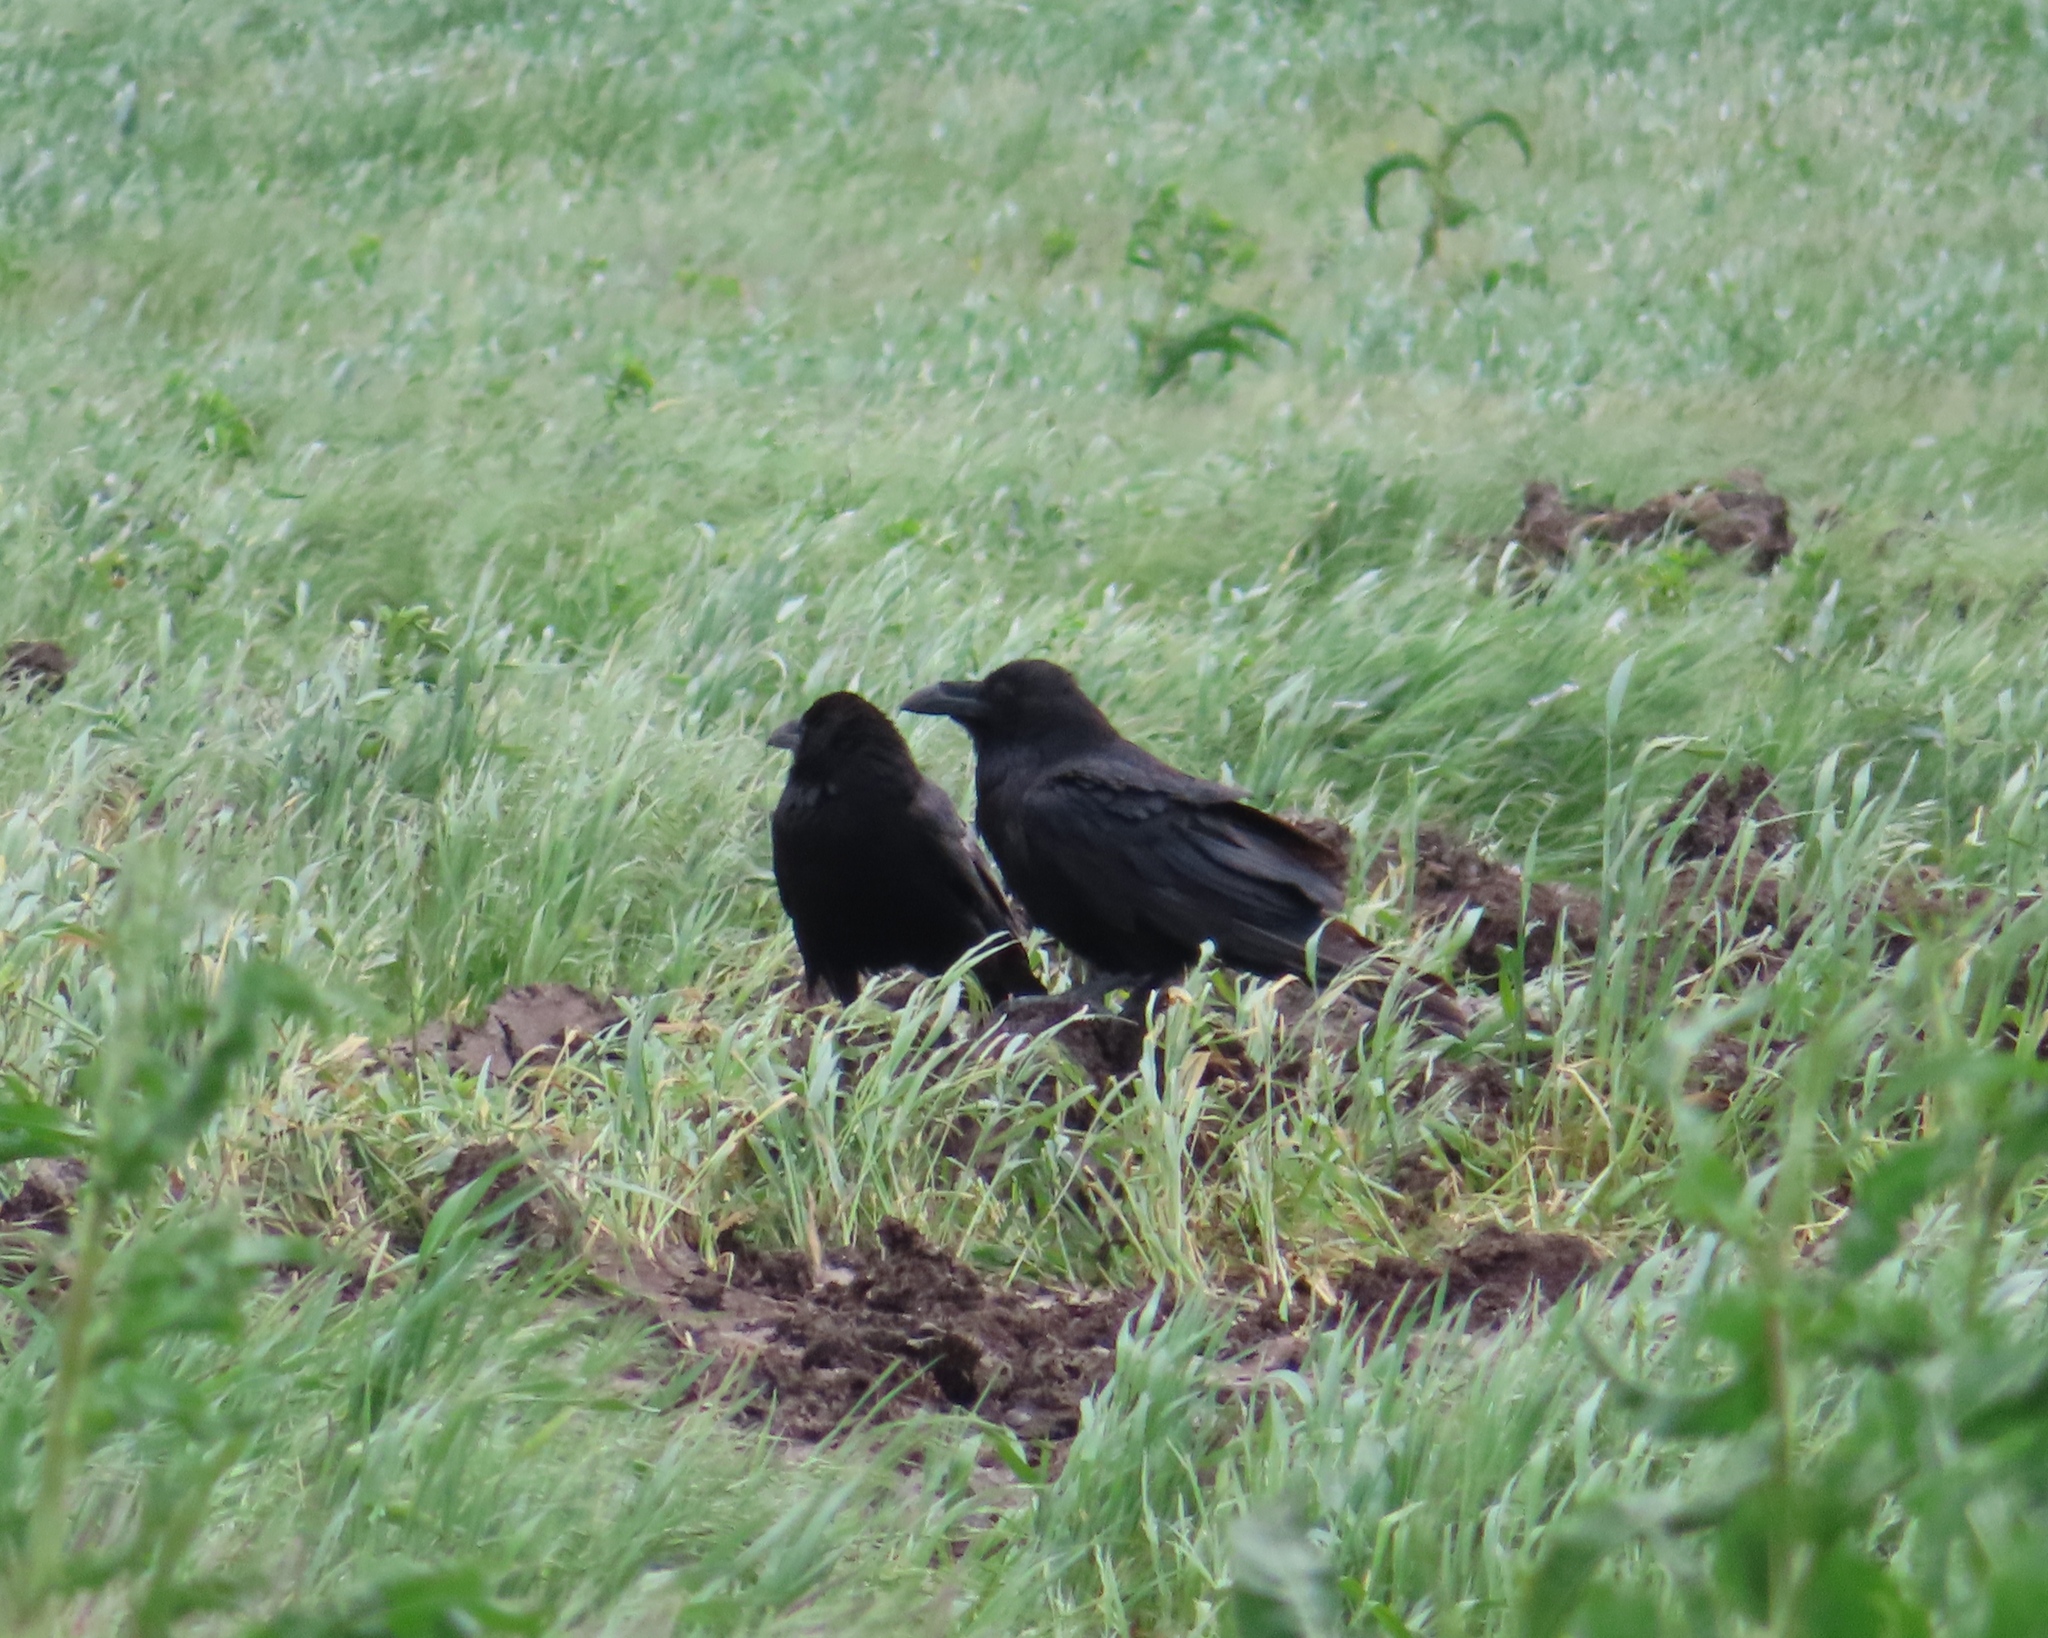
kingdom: Animalia
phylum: Chordata
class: Aves
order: Passeriformes
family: Corvidae
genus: Corvus
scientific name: Corvus corax
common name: Common raven
